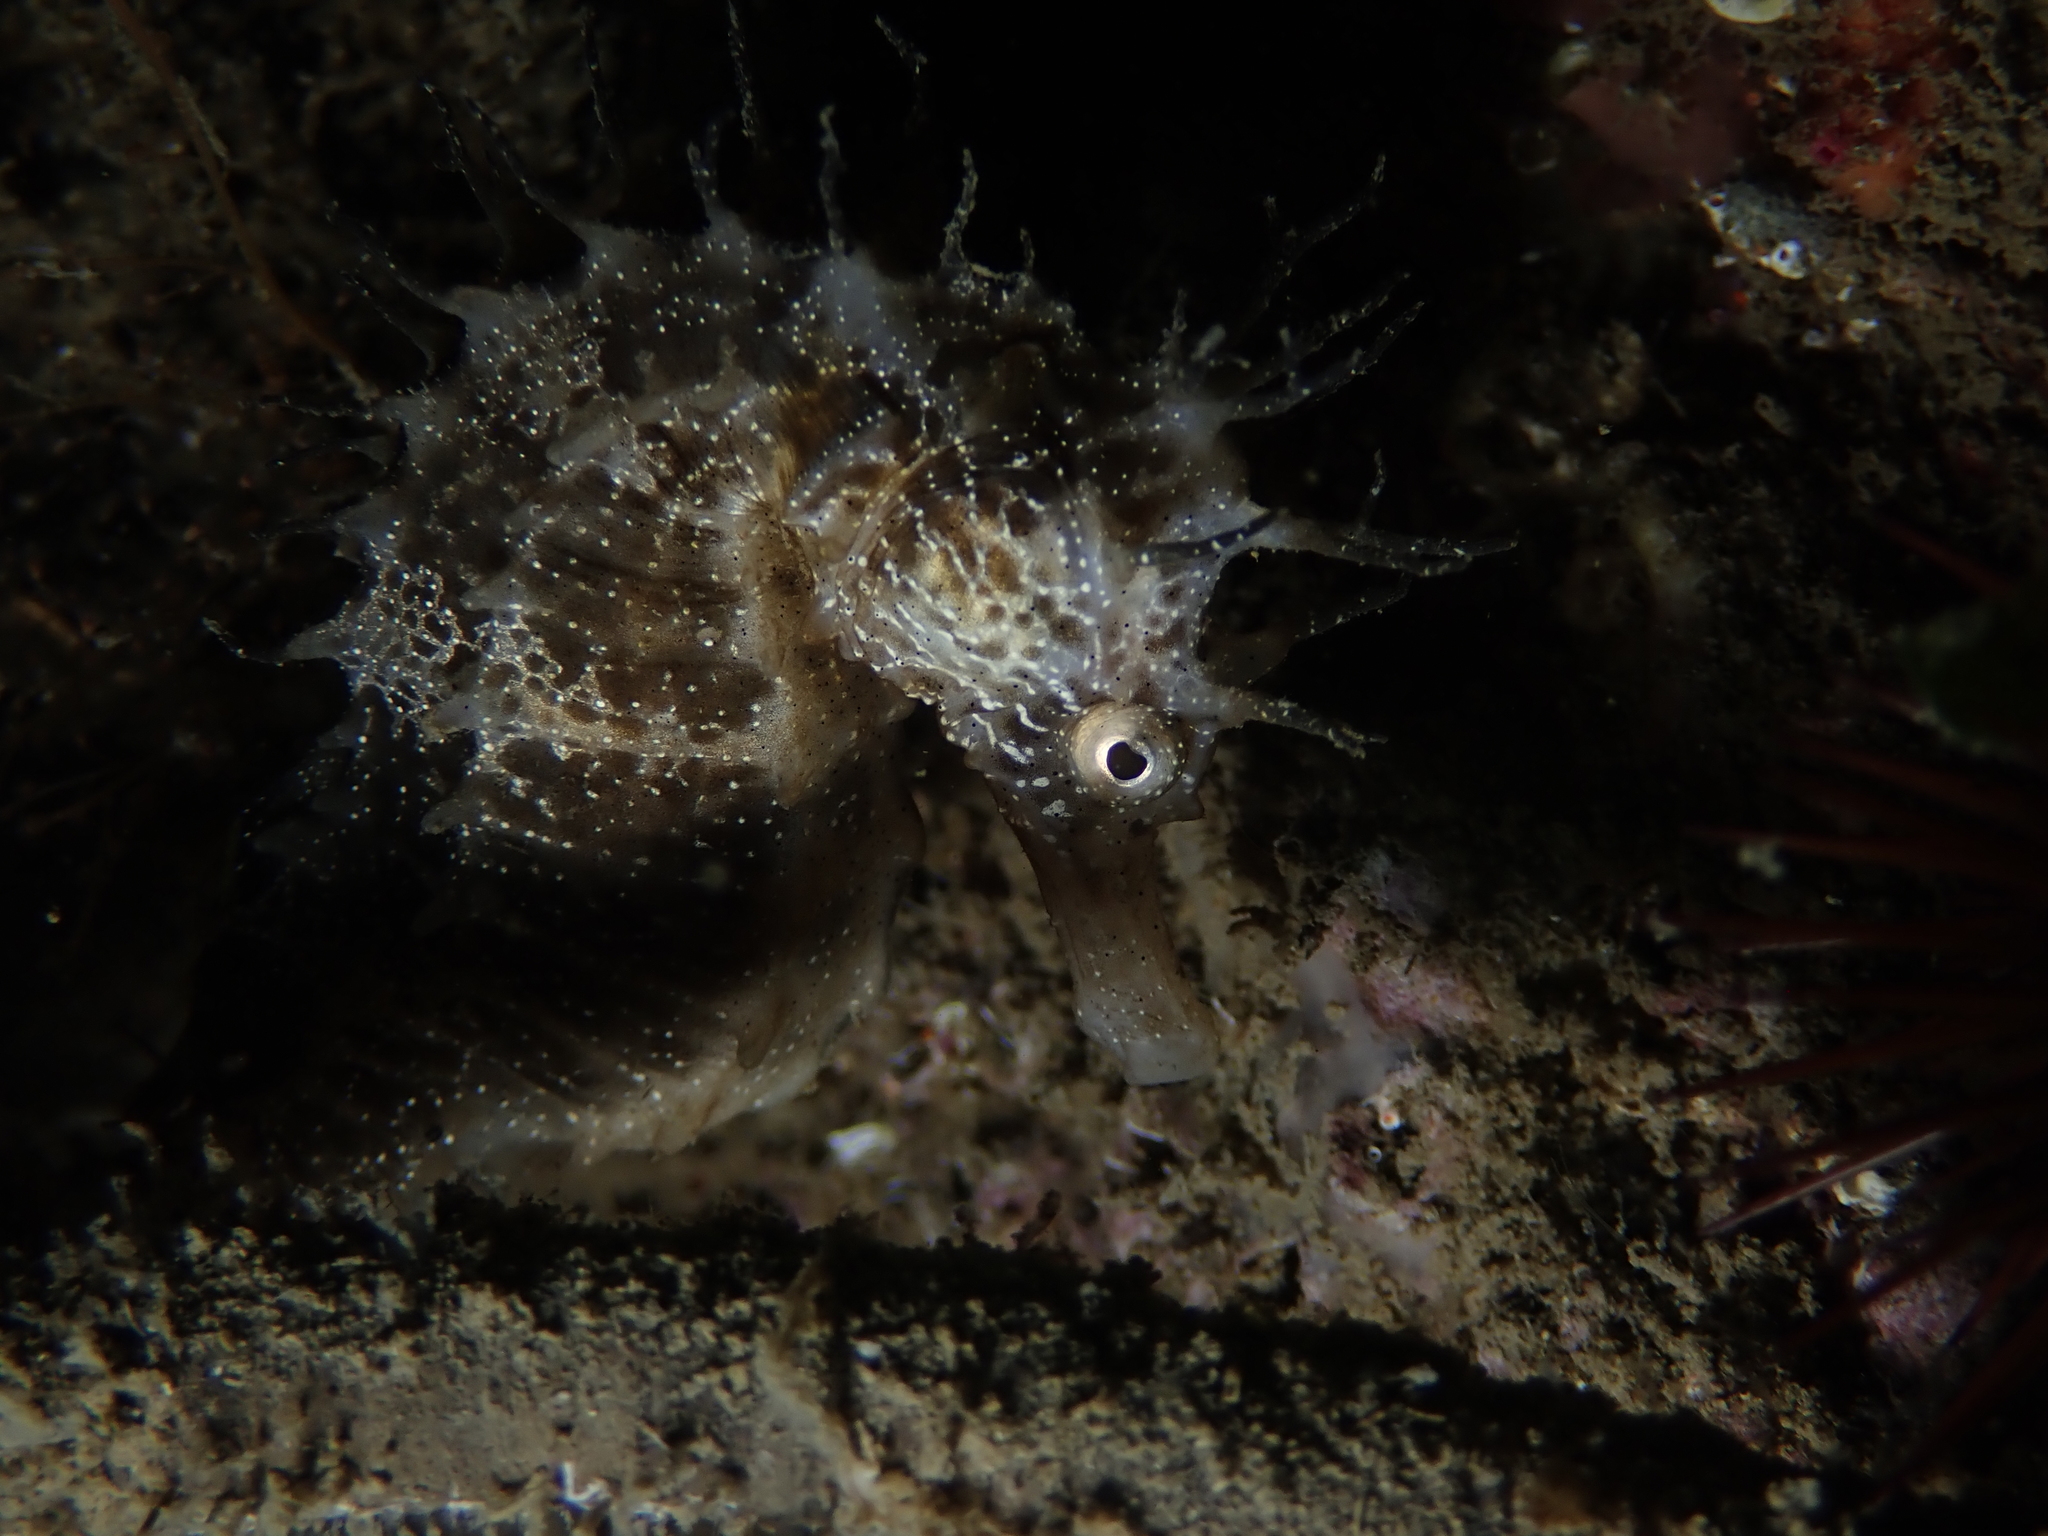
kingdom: Animalia
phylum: Chordata
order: Syngnathiformes
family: Syngnathidae
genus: Hippocampus
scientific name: Hippocampus guttulatus
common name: Long-snouted seahorse
